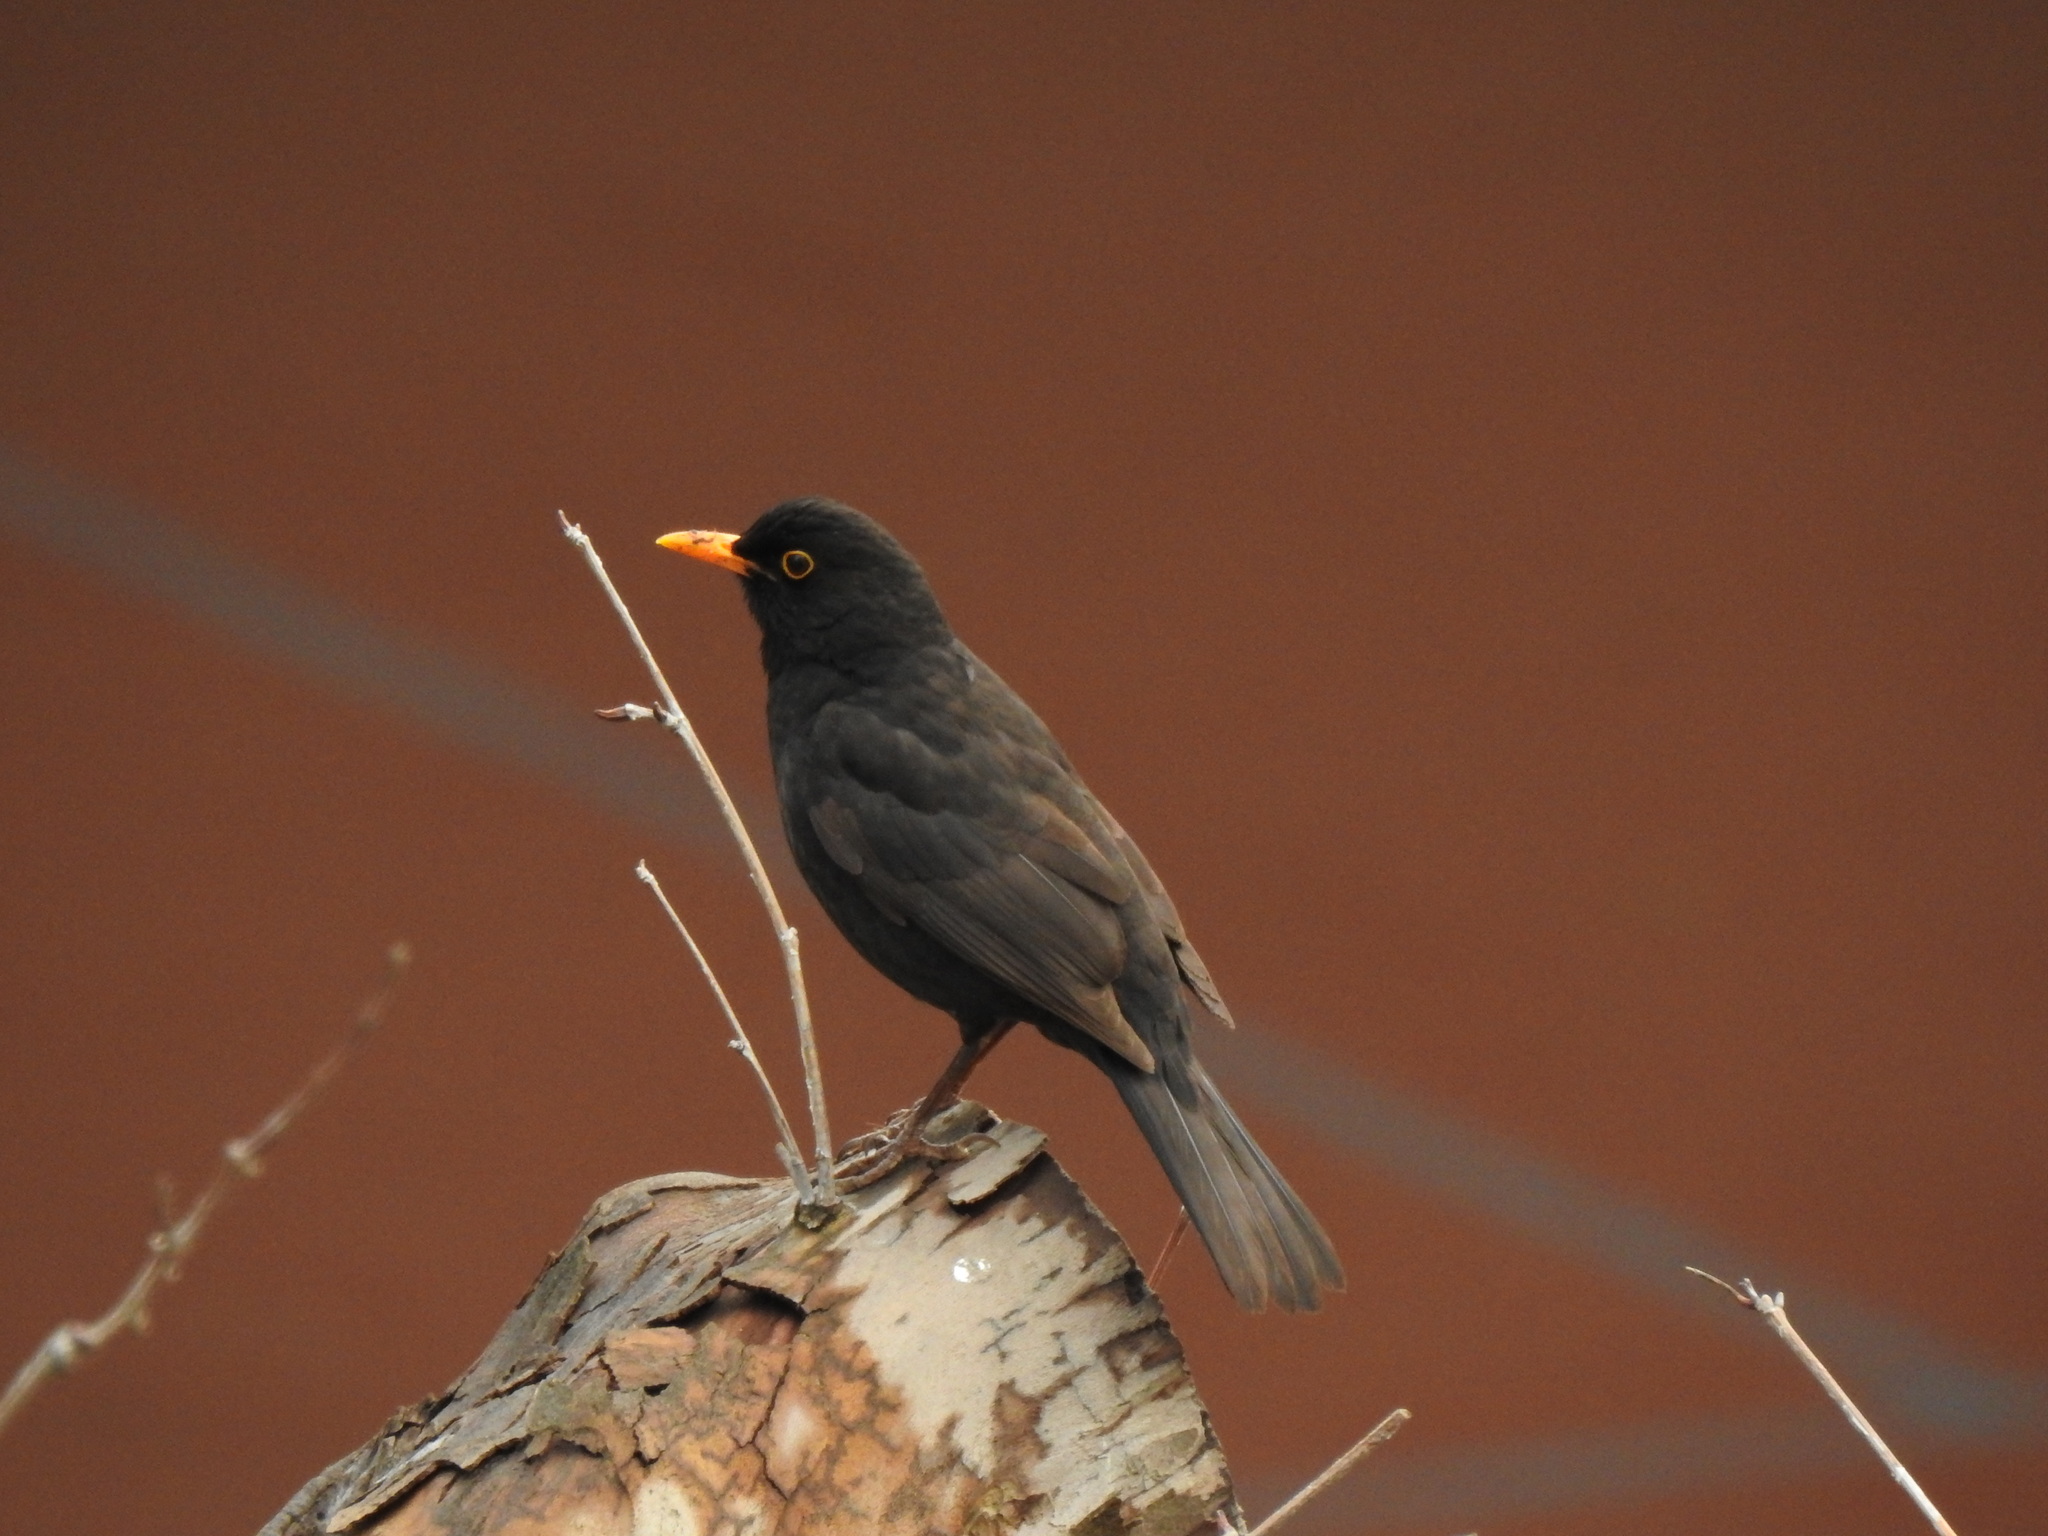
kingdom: Animalia
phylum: Chordata
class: Aves
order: Passeriformes
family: Turdidae
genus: Turdus
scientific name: Turdus merula
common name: Common blackbird
